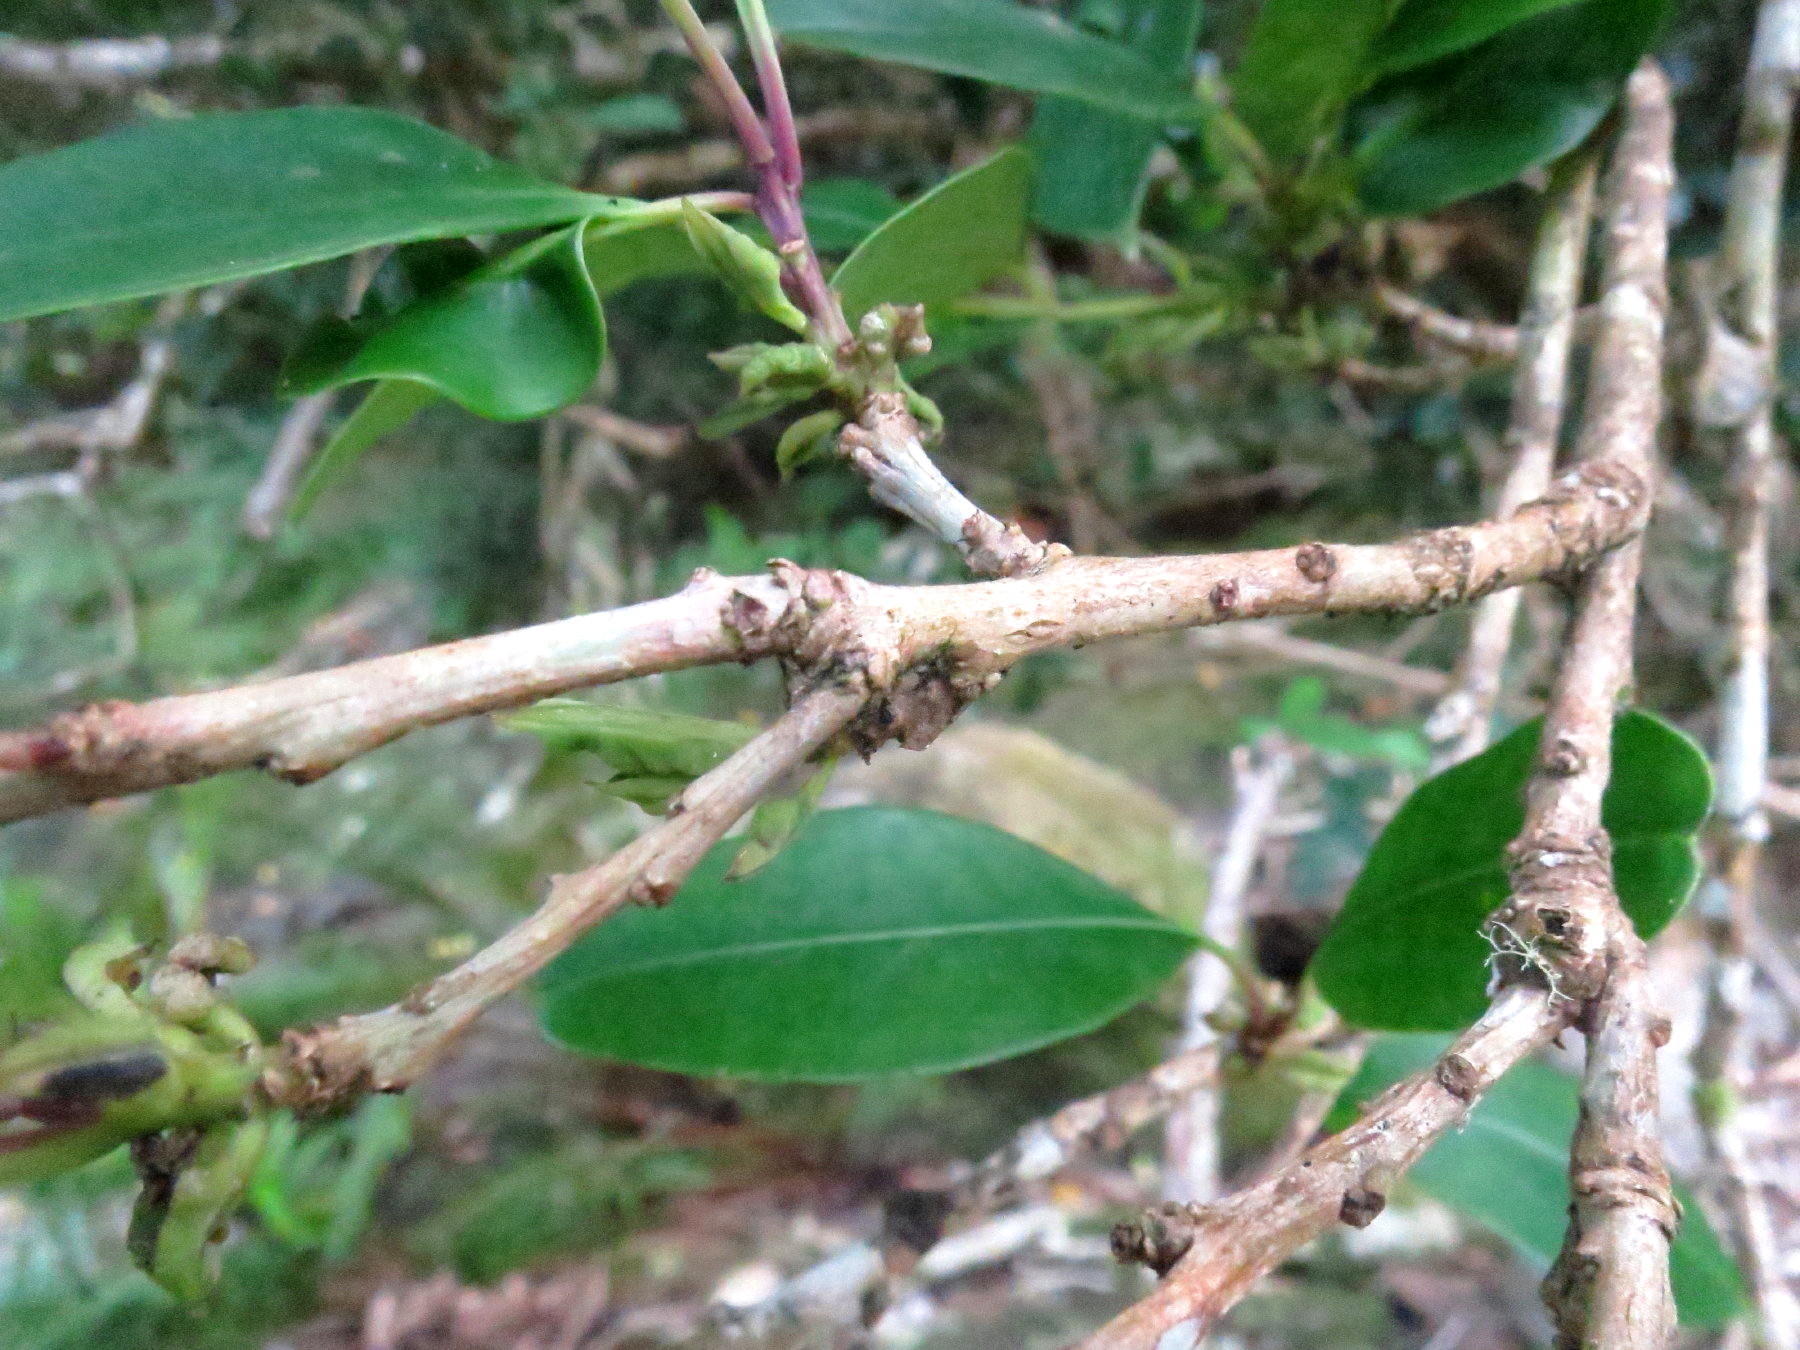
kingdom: Plantae
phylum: Tracheophyta
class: Magnoliopsida
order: Aquifoliales
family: Aquifoliaceae
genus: Ilex
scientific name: Ilex mitis
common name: African holly
